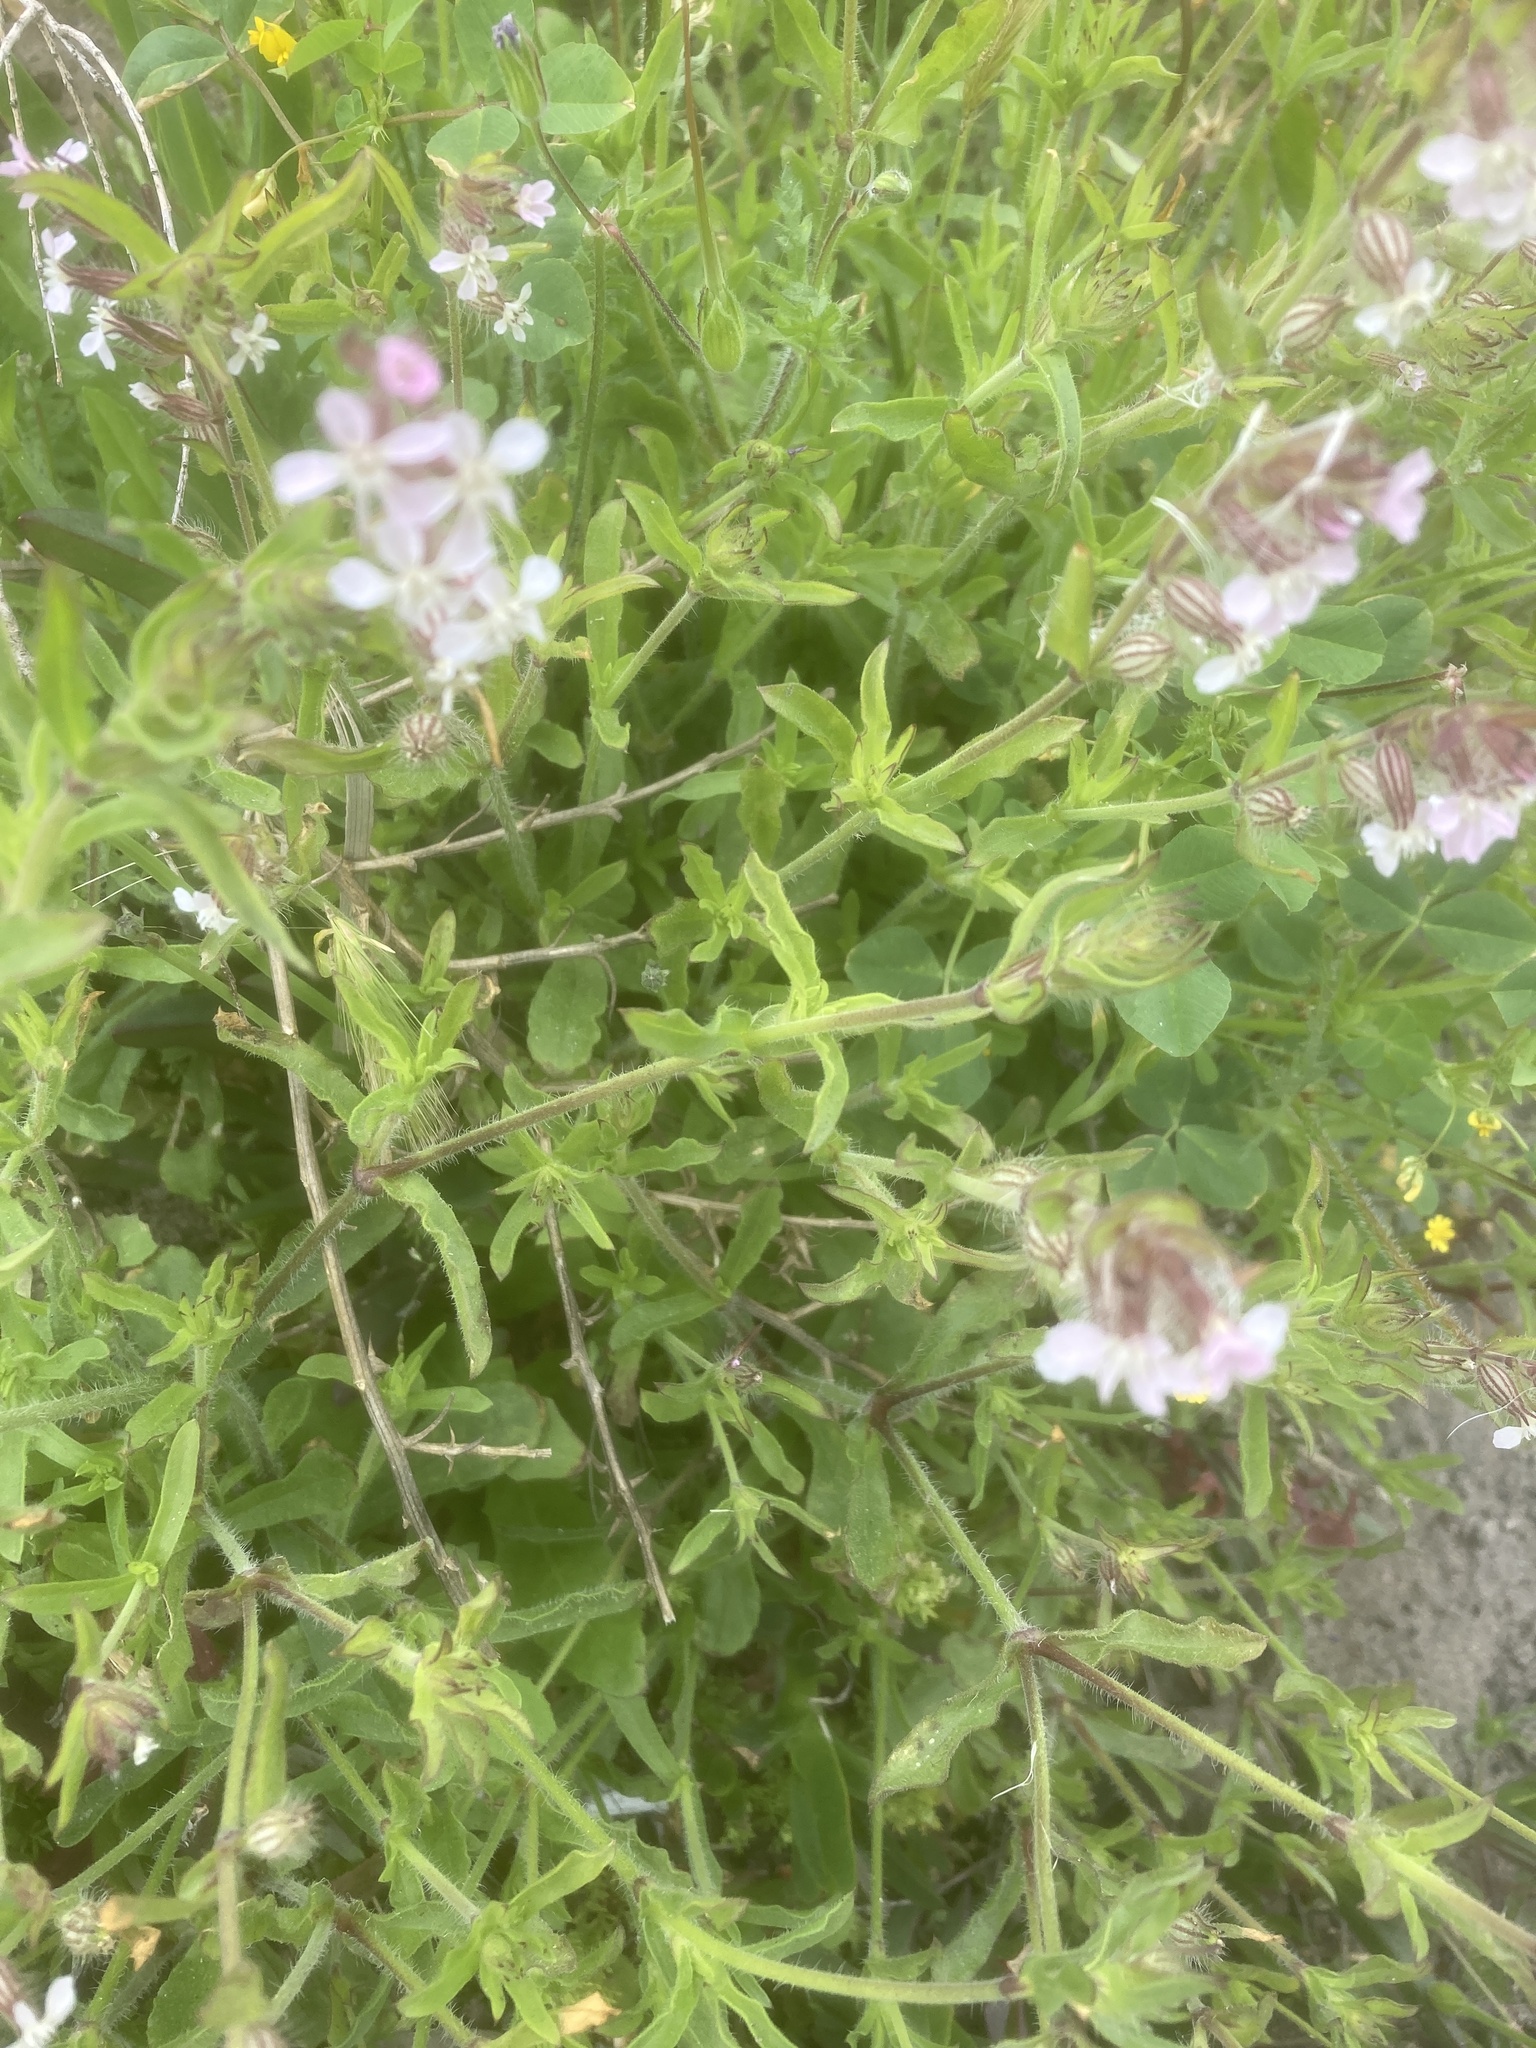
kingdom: Plantae
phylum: Tracheophyta
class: Magnoliopsida
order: Caryophyllales
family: Caryophyllaceae
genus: Silene
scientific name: Silene gallica
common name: Small-flowered catchfly
